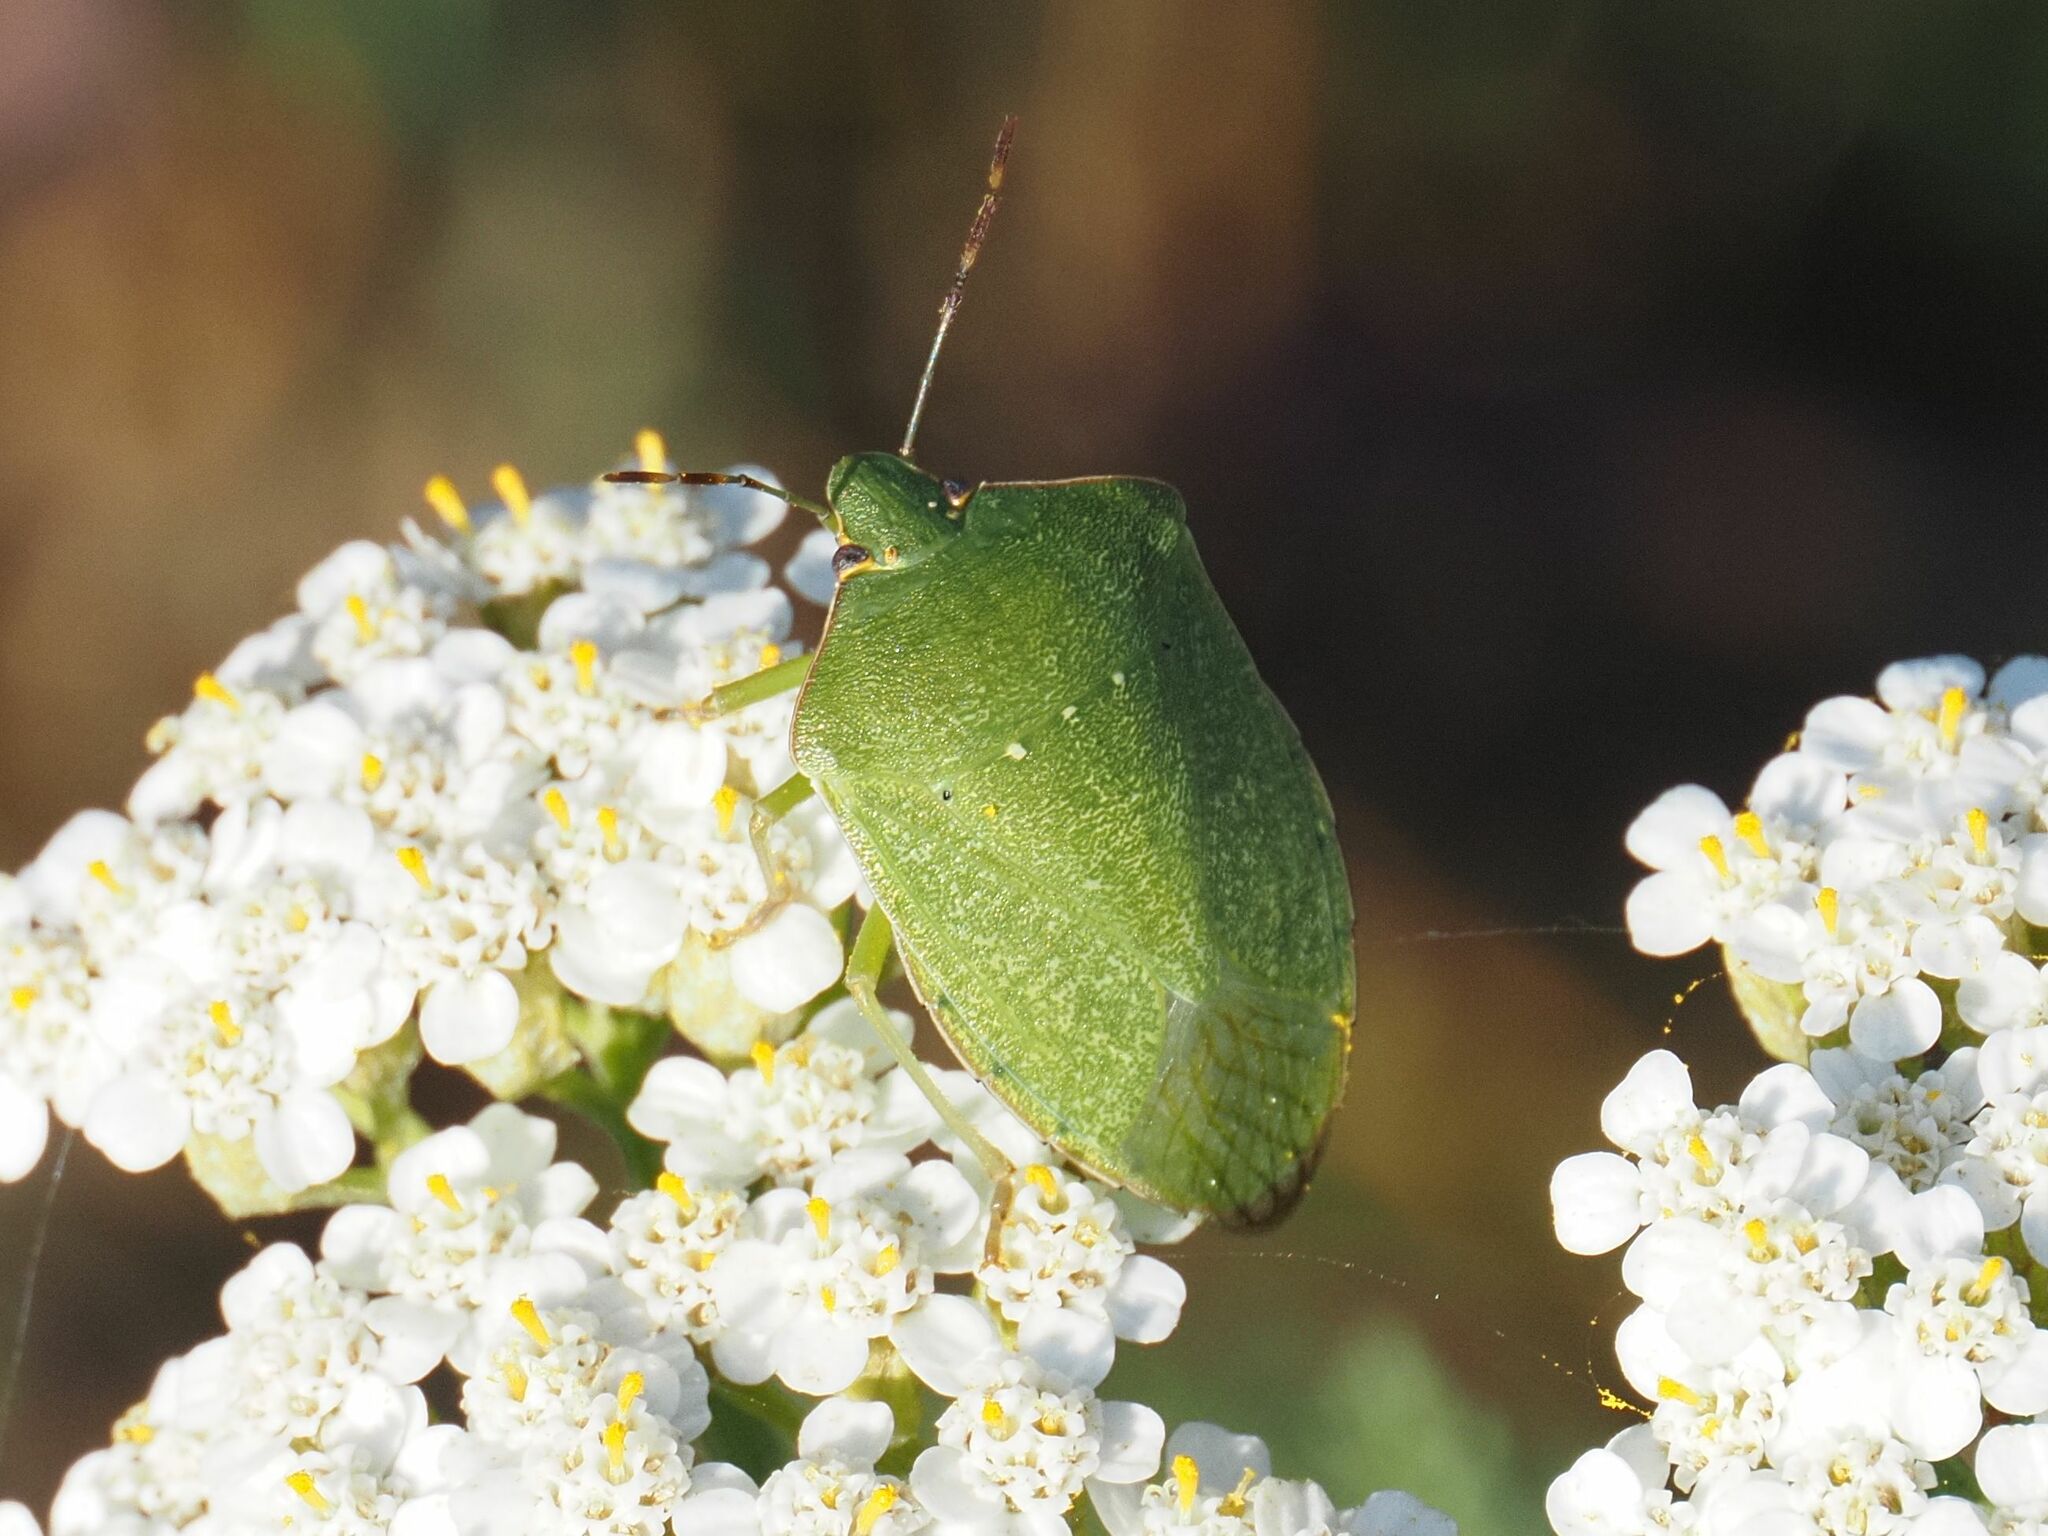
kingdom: Animalia
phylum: Arthropoda
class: Insecta
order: Hemiptera
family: Pentatomidae
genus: Nezara
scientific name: Nezara viridula
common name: Southern green stink bug
